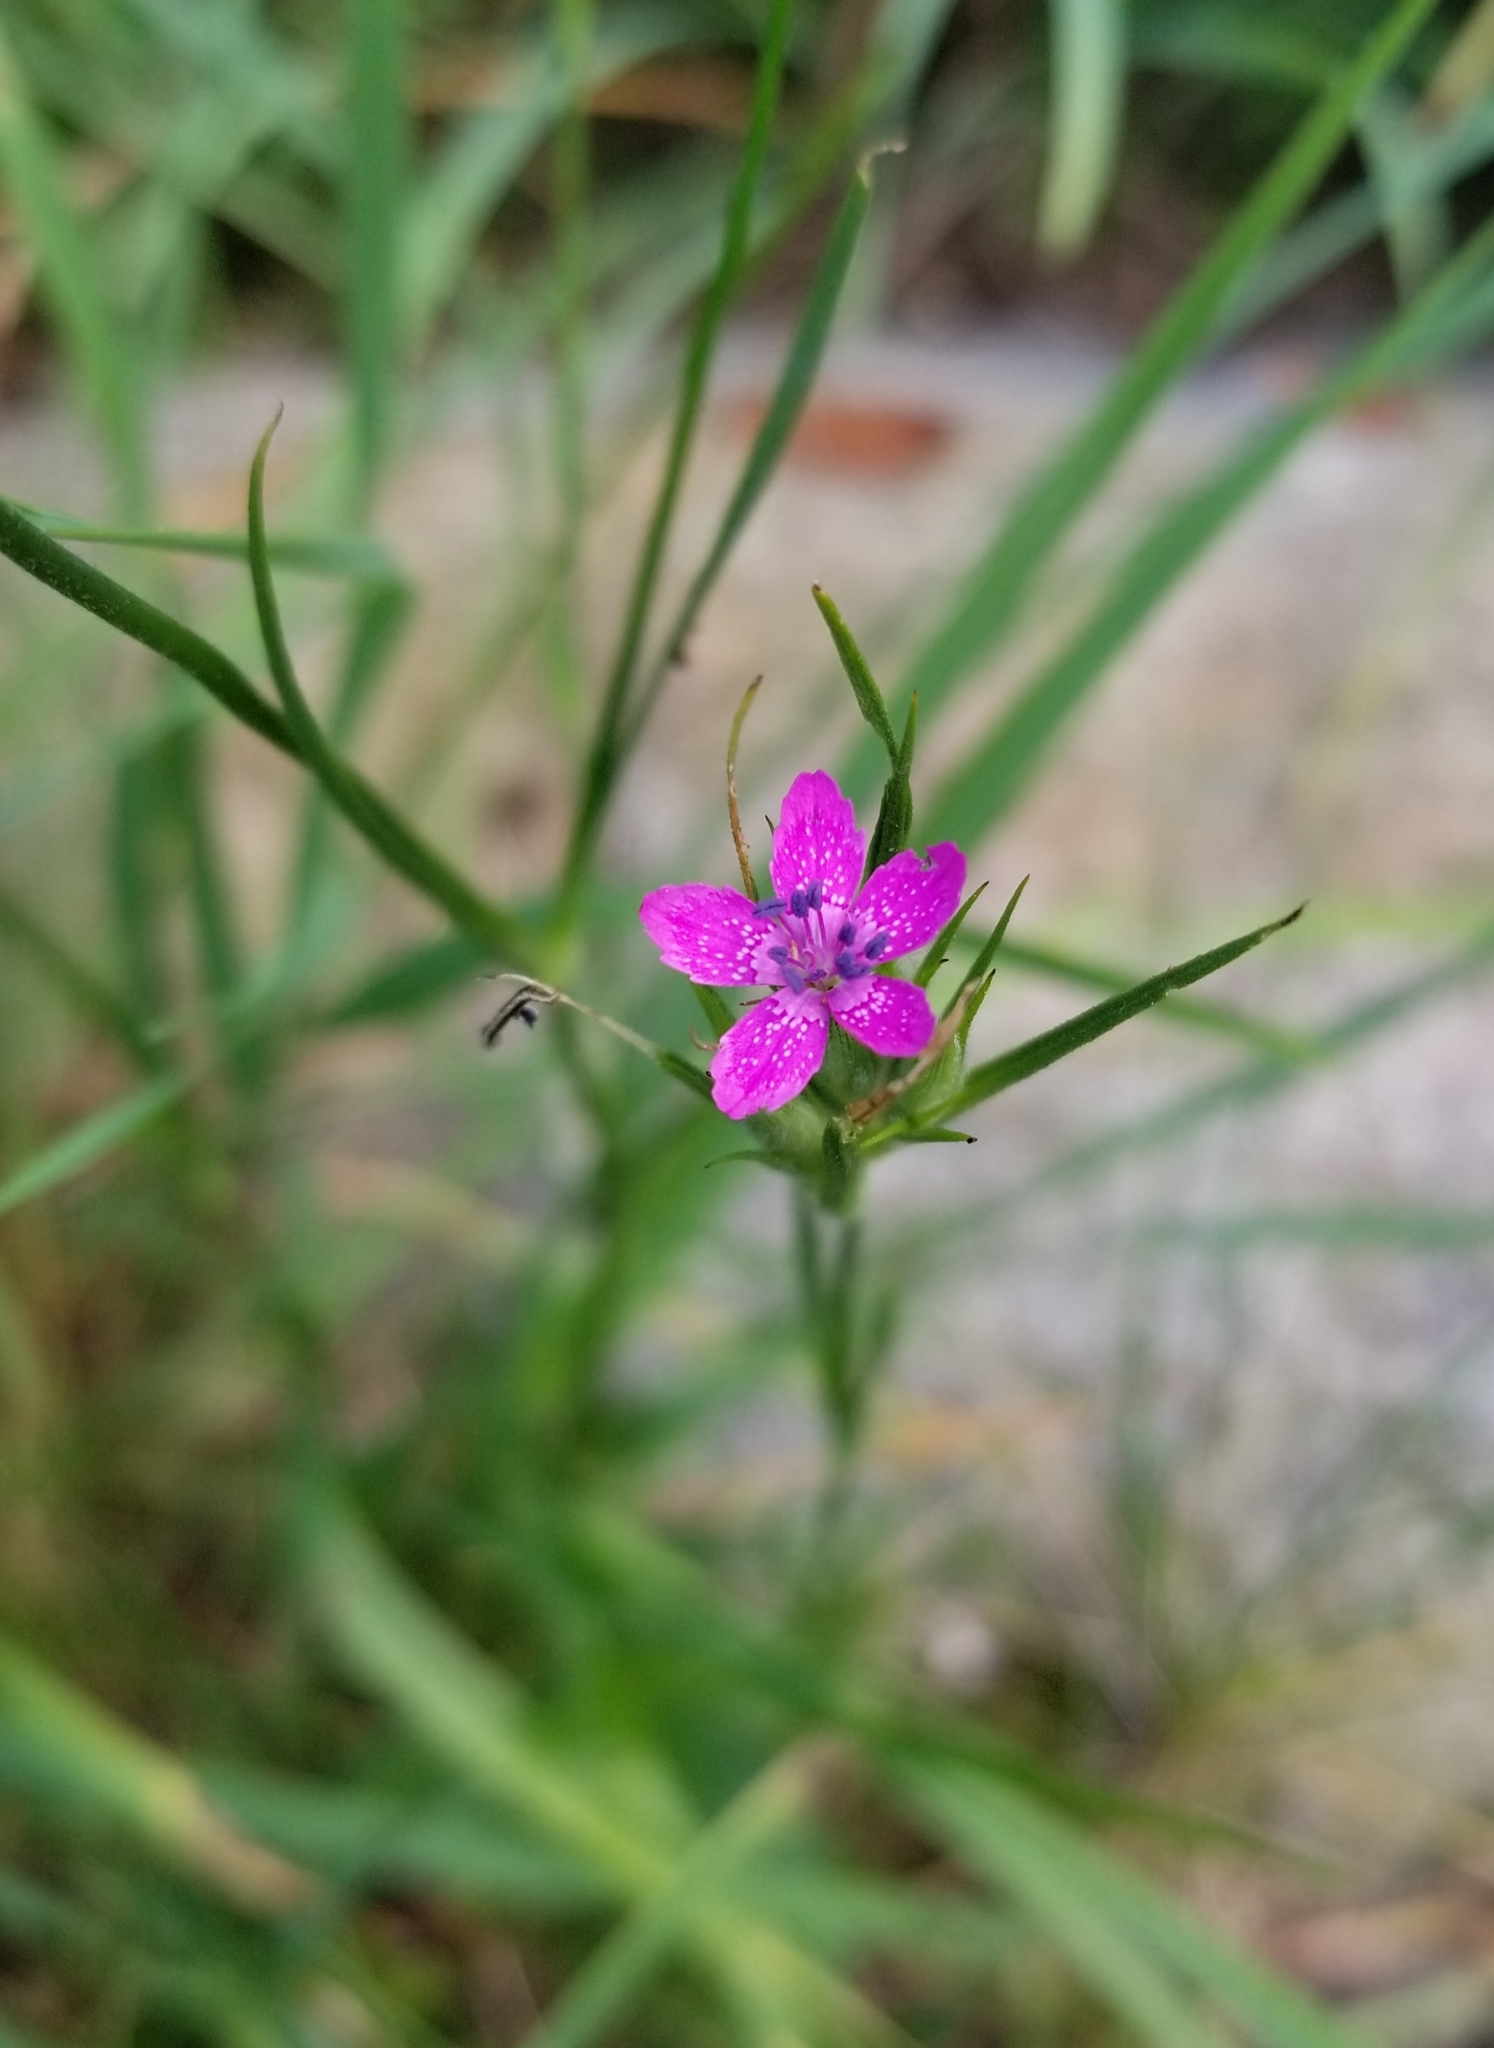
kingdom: Plantae
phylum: Tracheophyta
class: Magnoliopsida
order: Caryophyllales
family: Caryophyllaceae
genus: Dianthus
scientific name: Dianthus armeria
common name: Deptford pink
